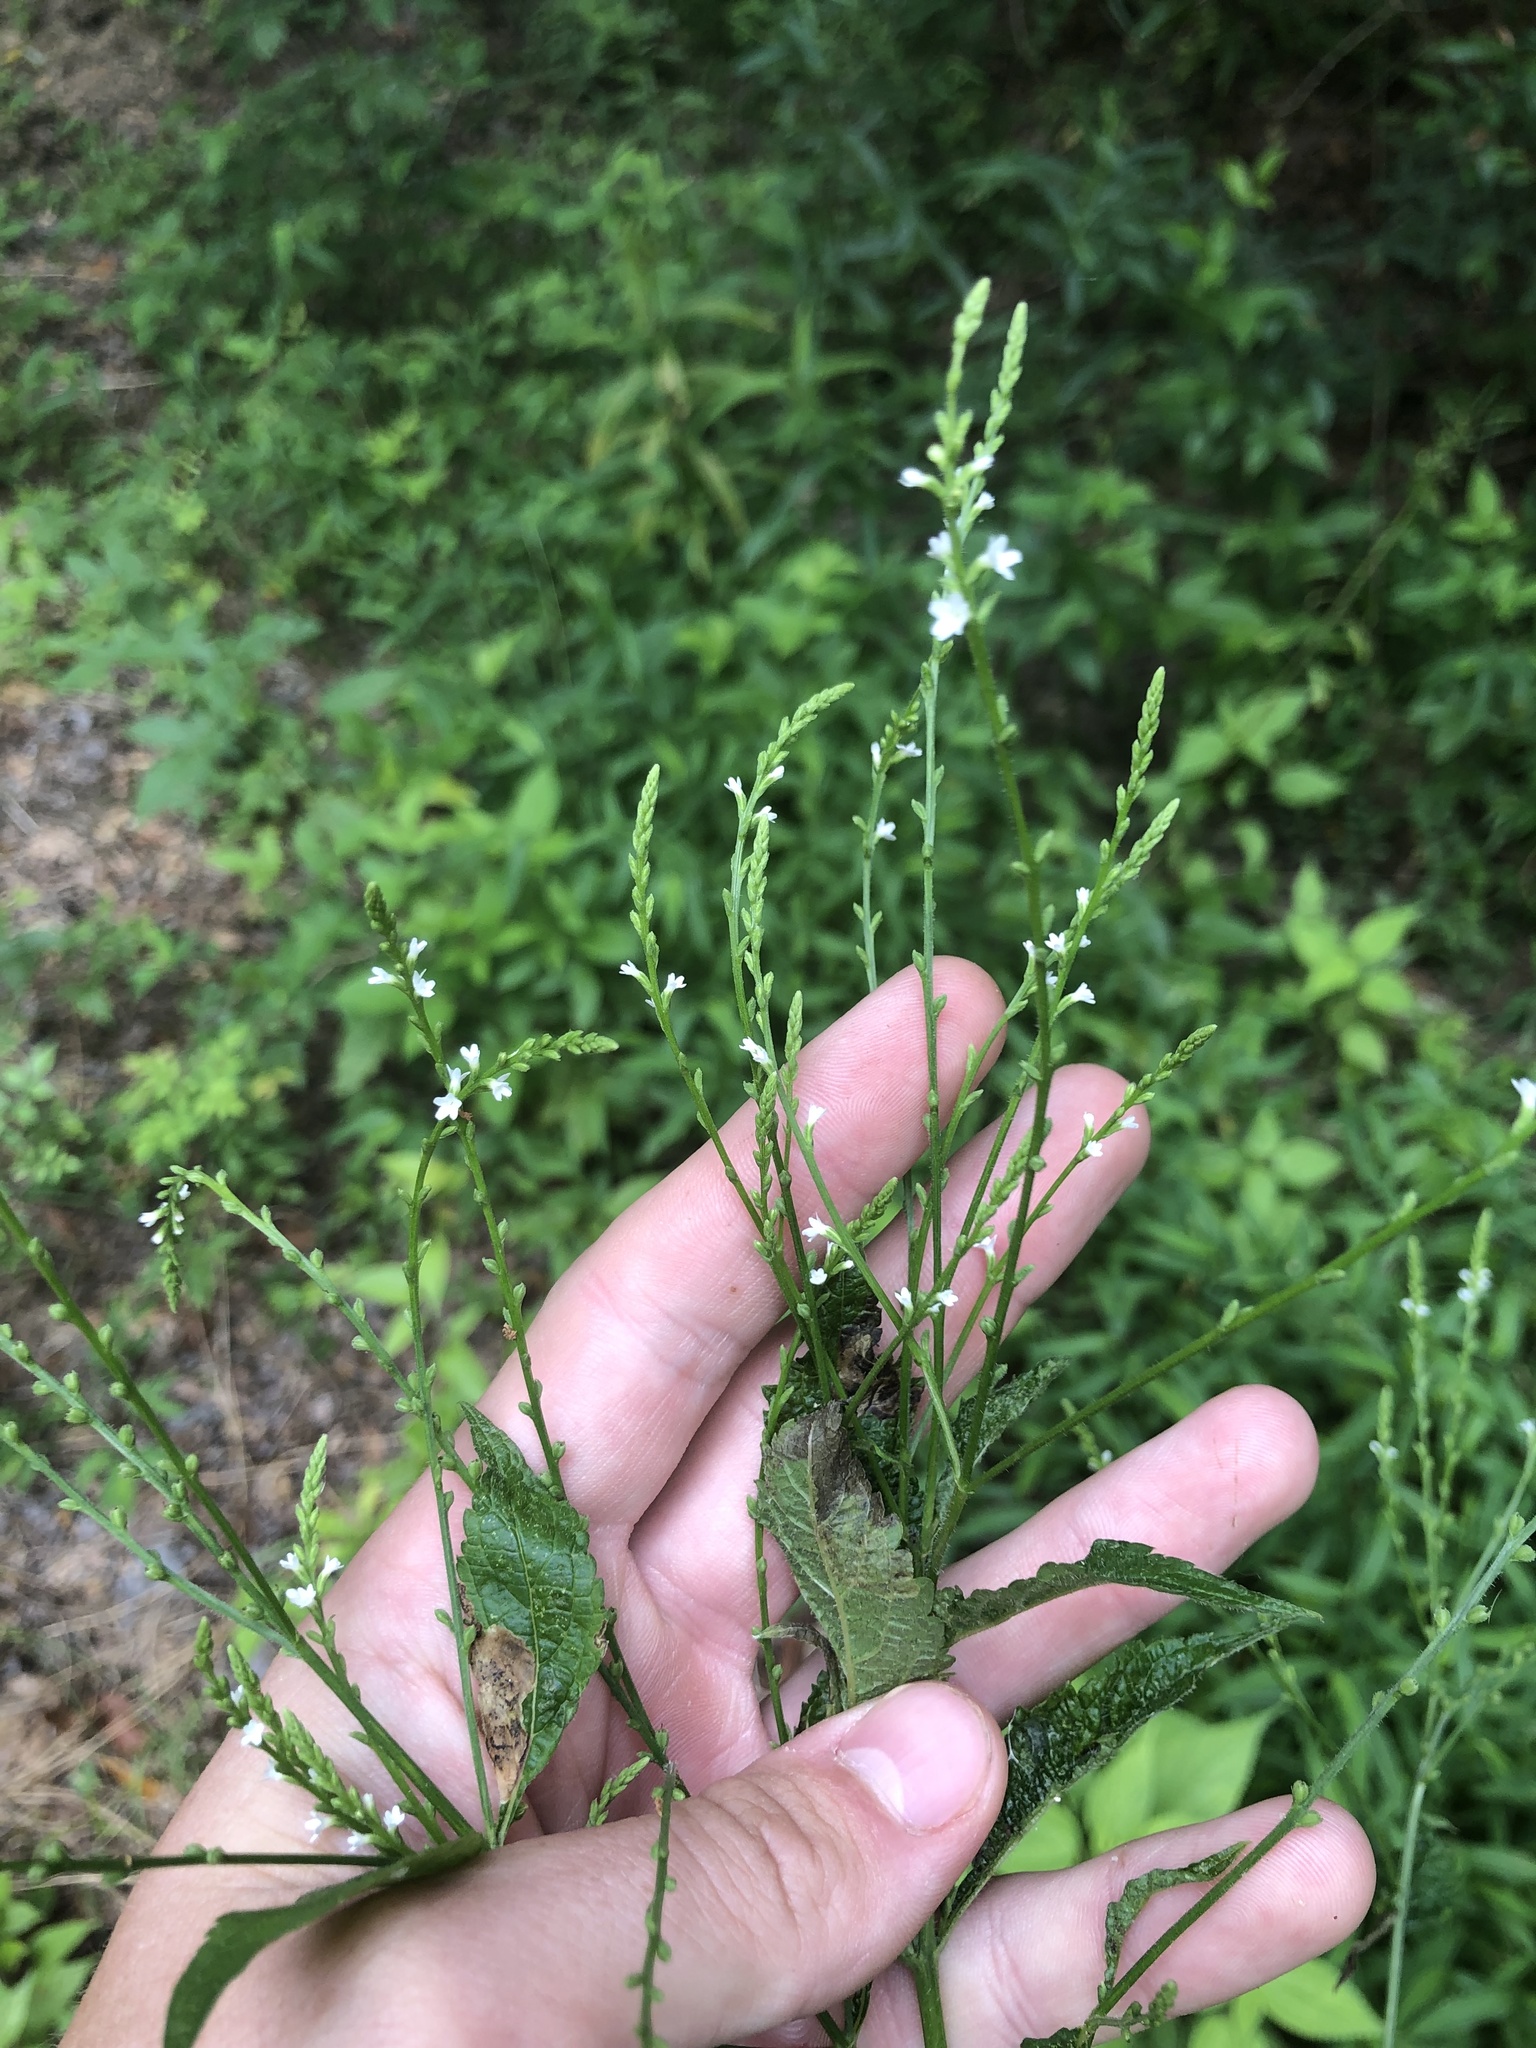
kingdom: Plantae
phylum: Tracheophyta
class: Magnoliopsida
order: Lamiales
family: Verbenaceae
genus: Verbena
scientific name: Verbena urticifolia
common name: Nettle-leaved vervain
